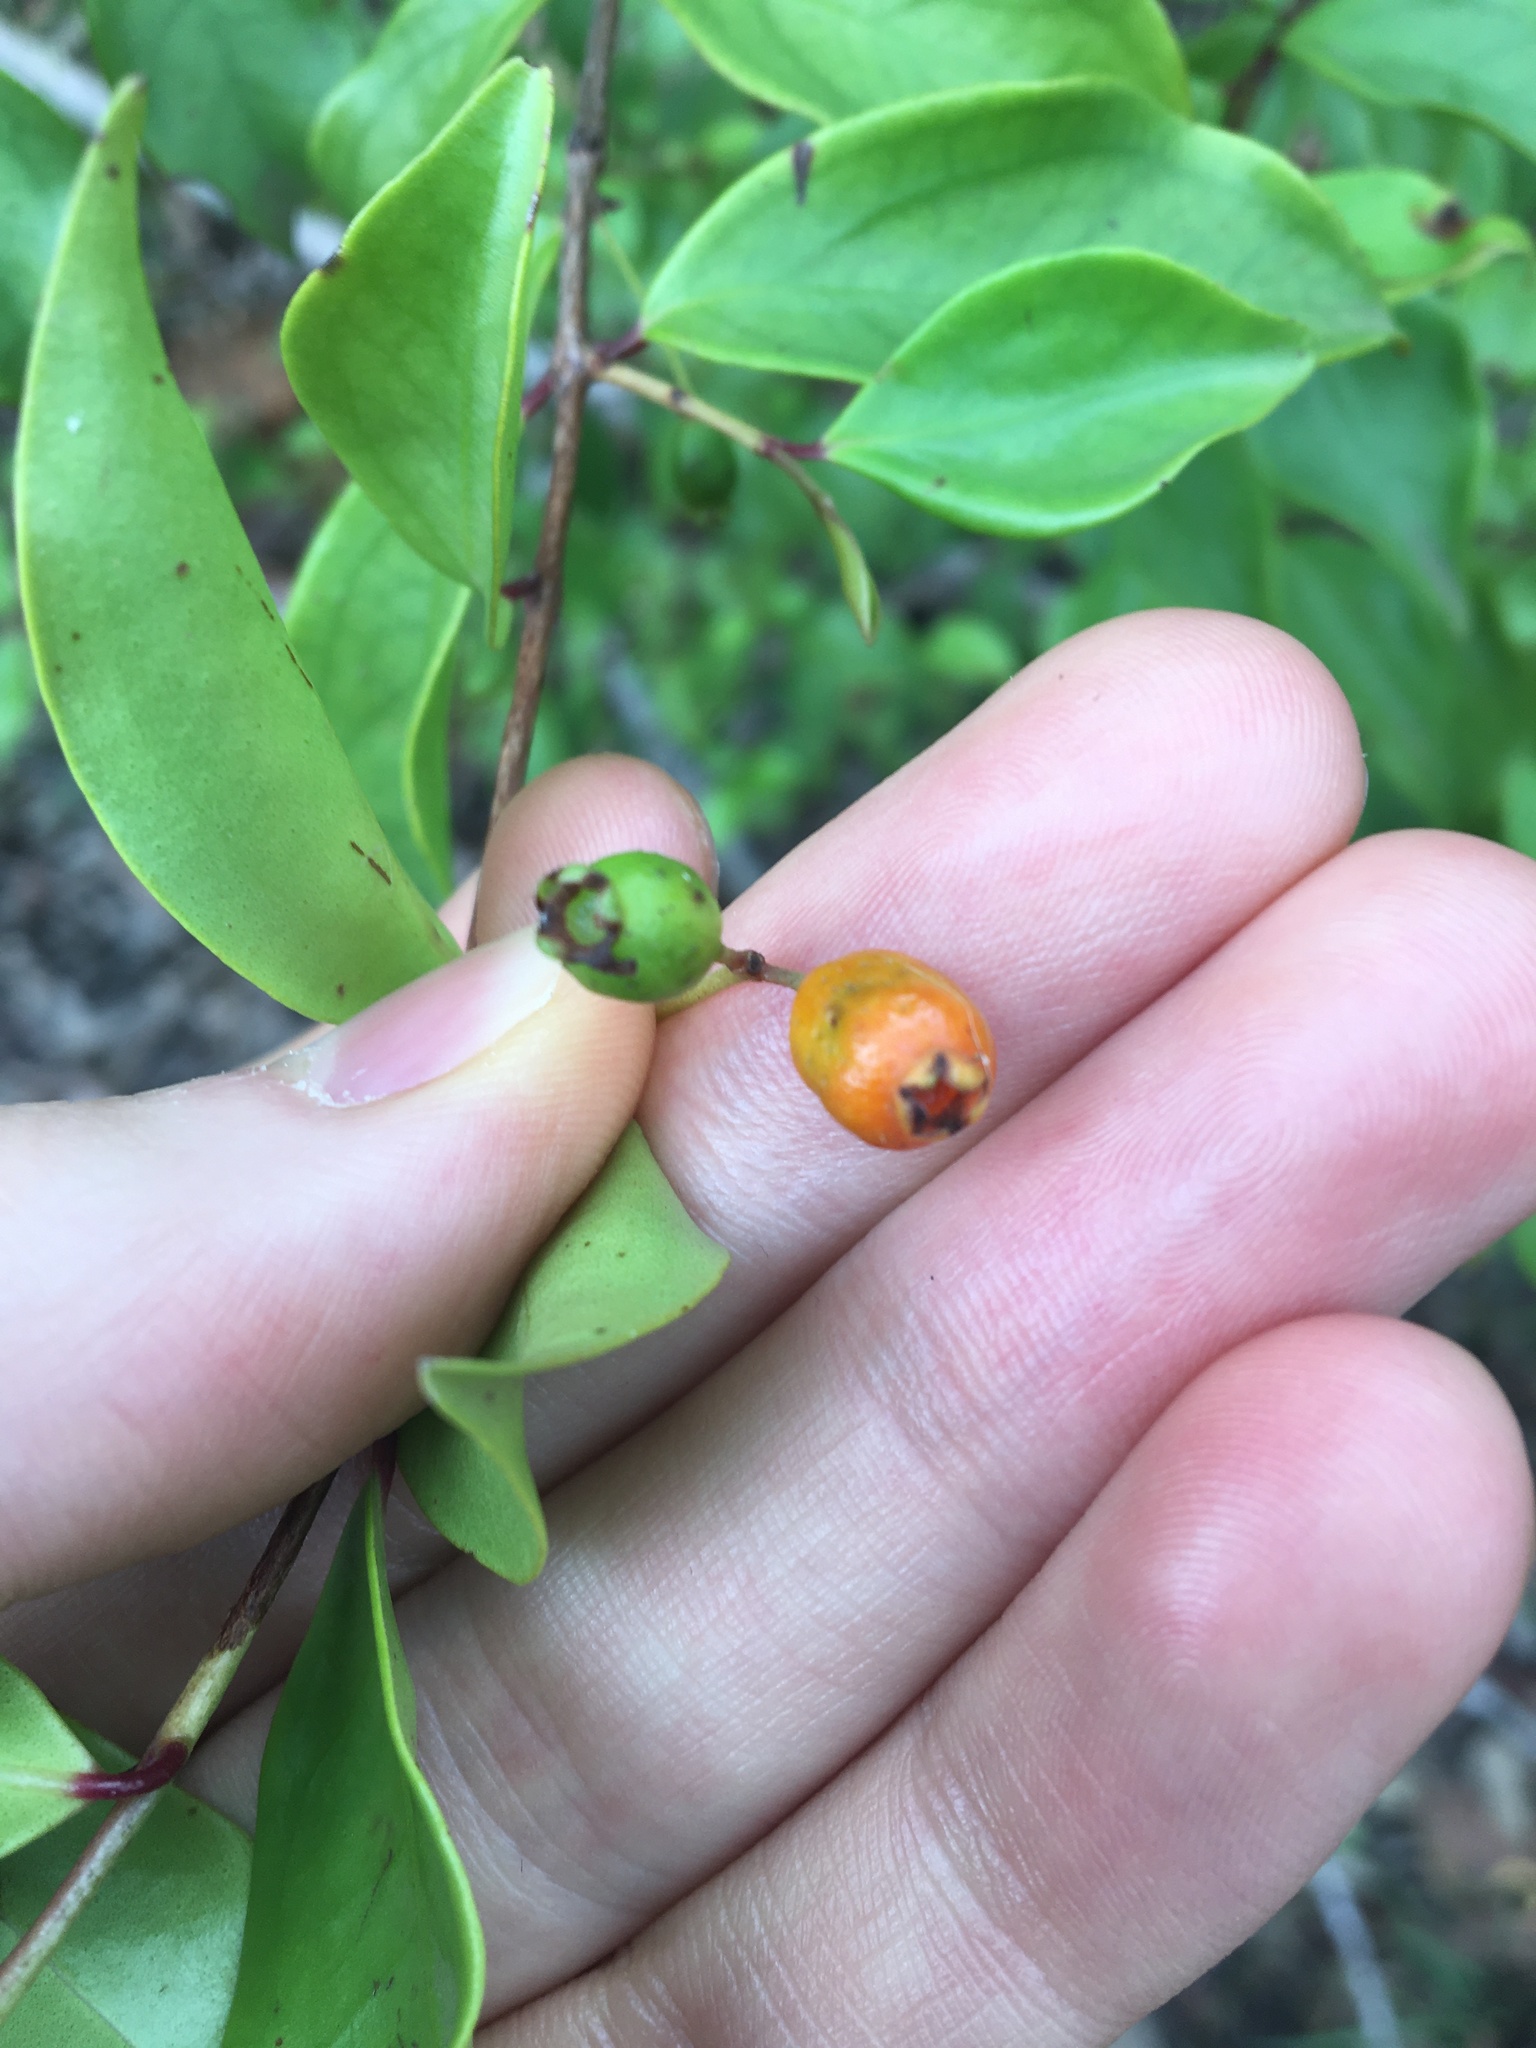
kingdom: Plantae
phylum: Tracheophyta
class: Magnoliopsida
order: Myrtales
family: Myrtaceae
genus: Archirhodomyrtus
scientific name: Archirhodomyrtus beckleri
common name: Beckler's myrtle
